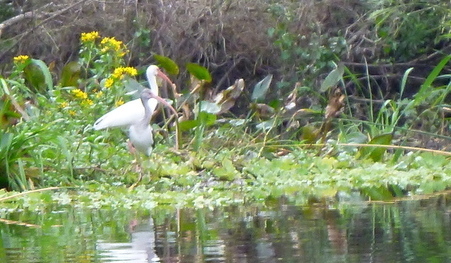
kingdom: Animalia
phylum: Chordata
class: Aves
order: Pelecaniformes
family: Threskiornithidae
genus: Eudocimus
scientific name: Eudocimus albus
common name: White ibis
